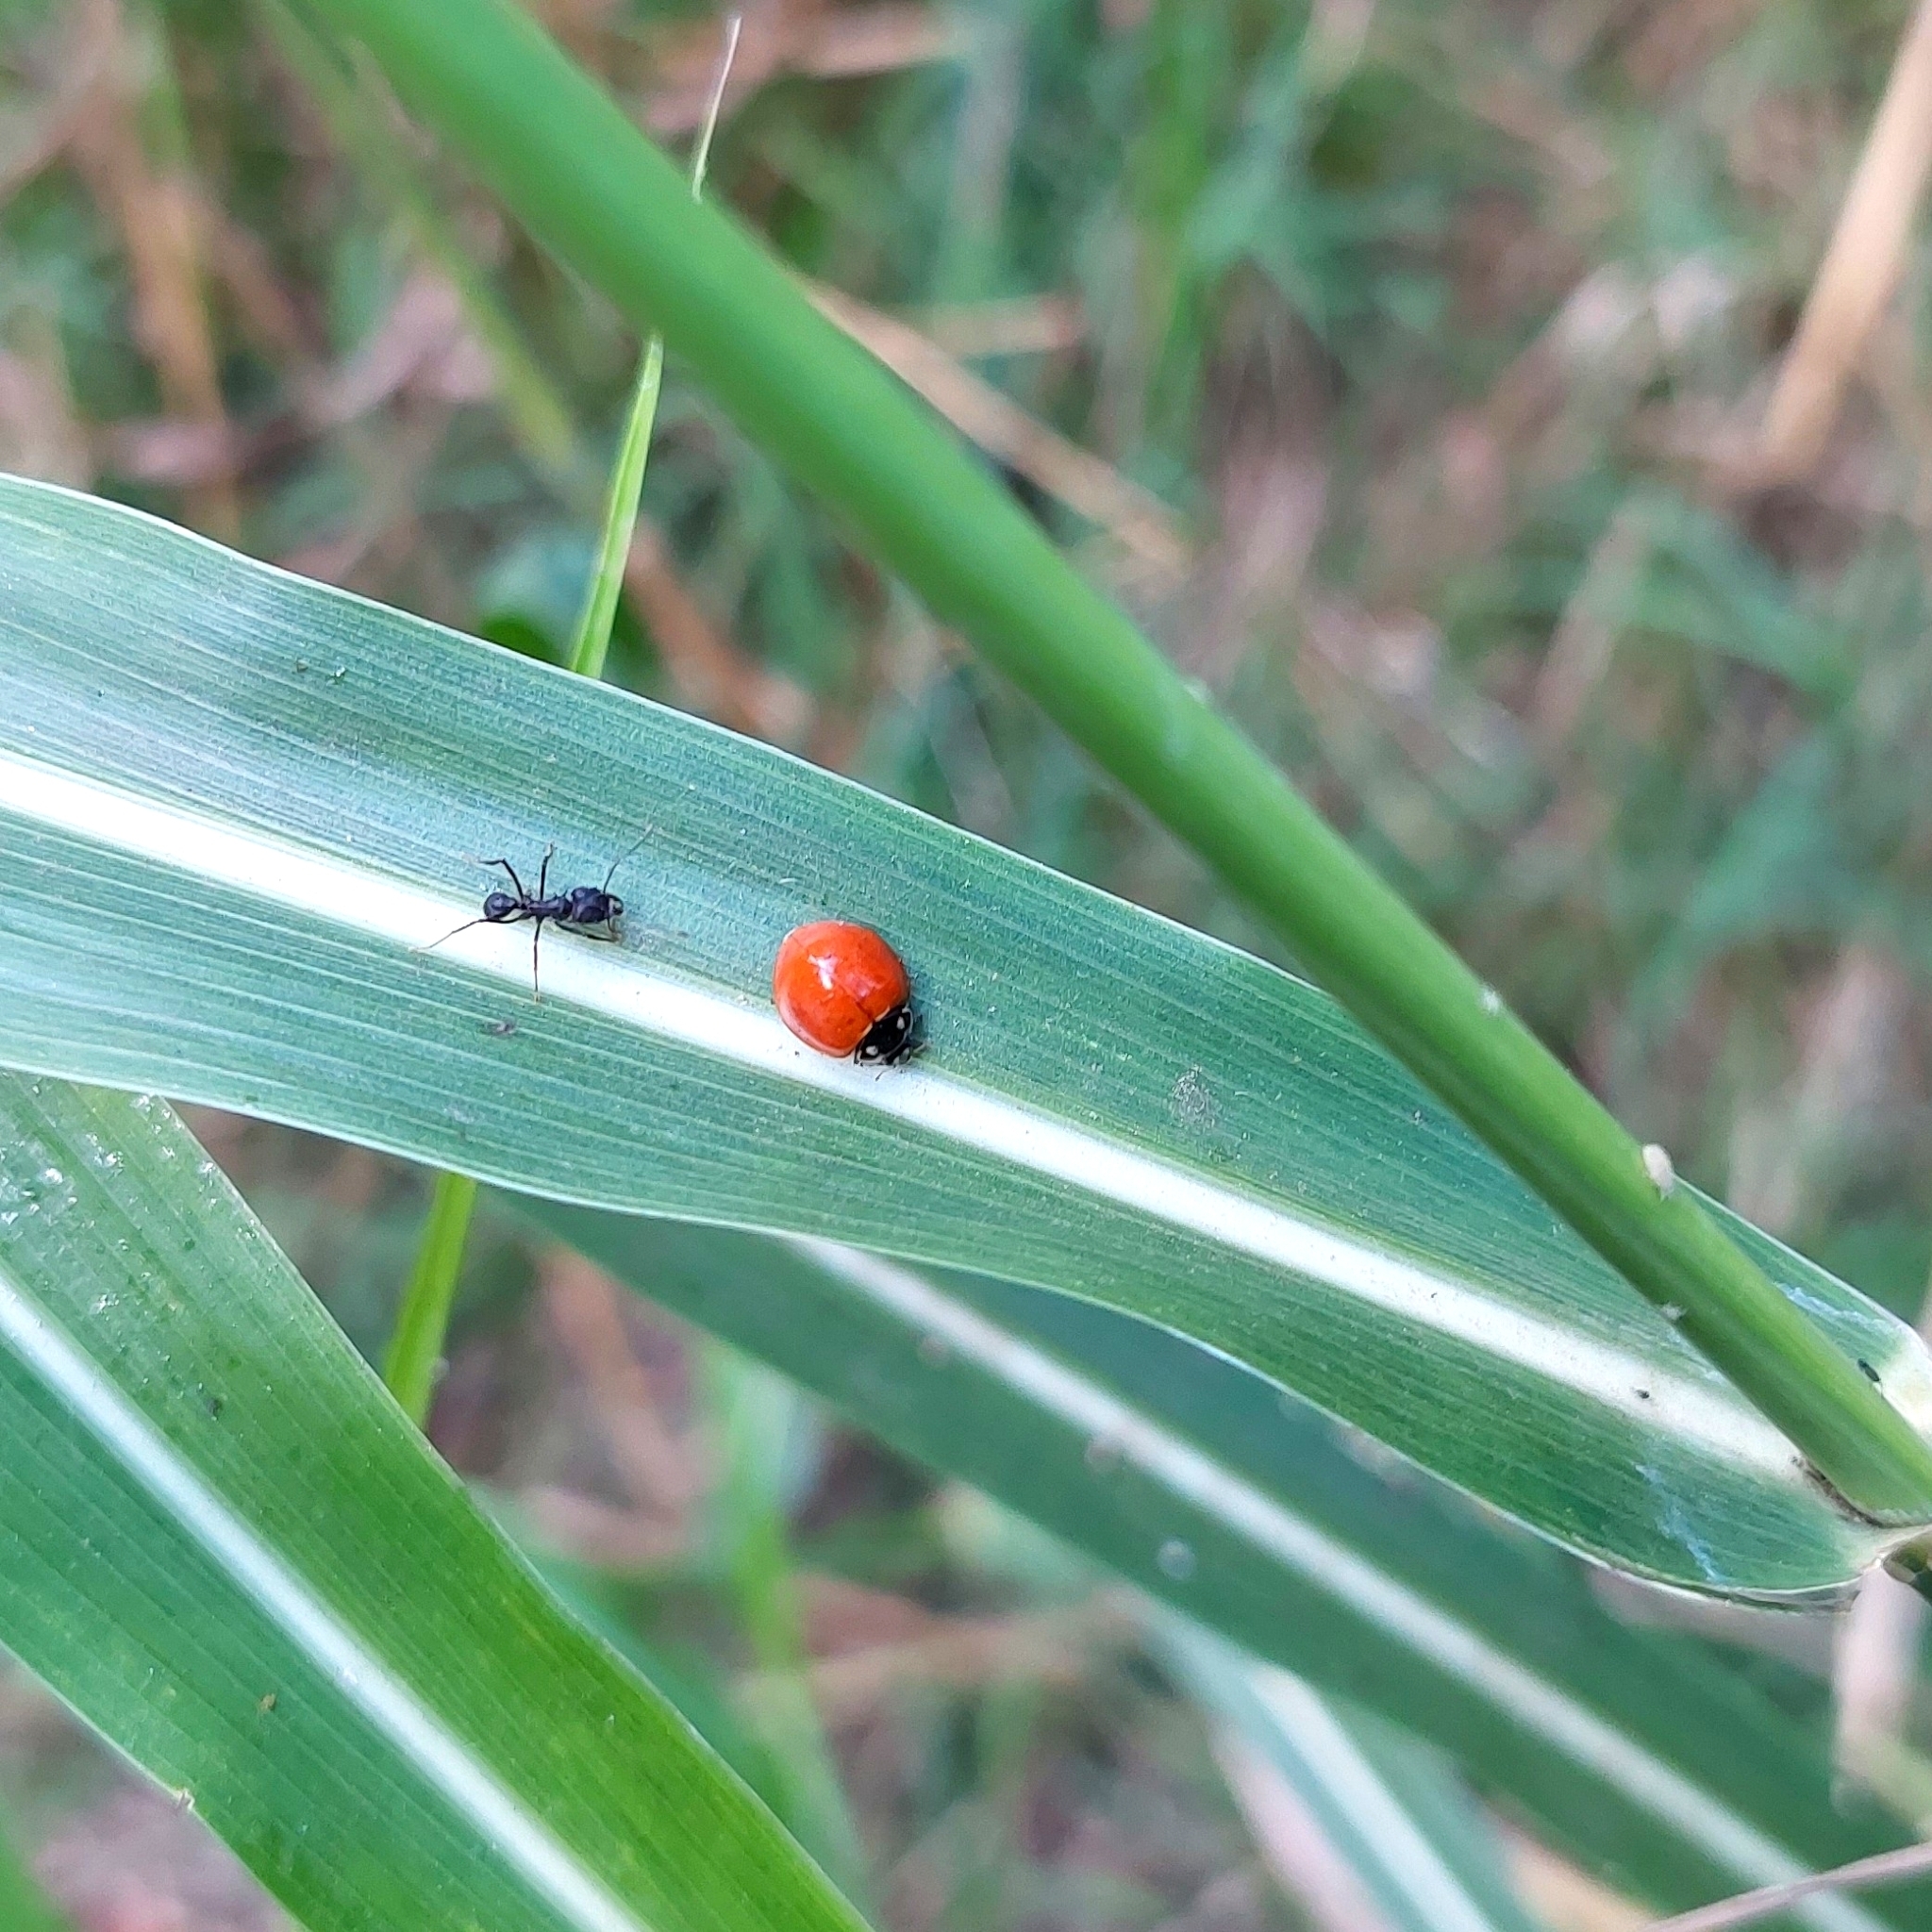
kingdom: Animalia
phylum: Arthropoda
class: Insecta
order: Coleoptera
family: Coccinellidae
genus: Cycloneda
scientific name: Cycloneda sanguinea
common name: Ladybird beetle
